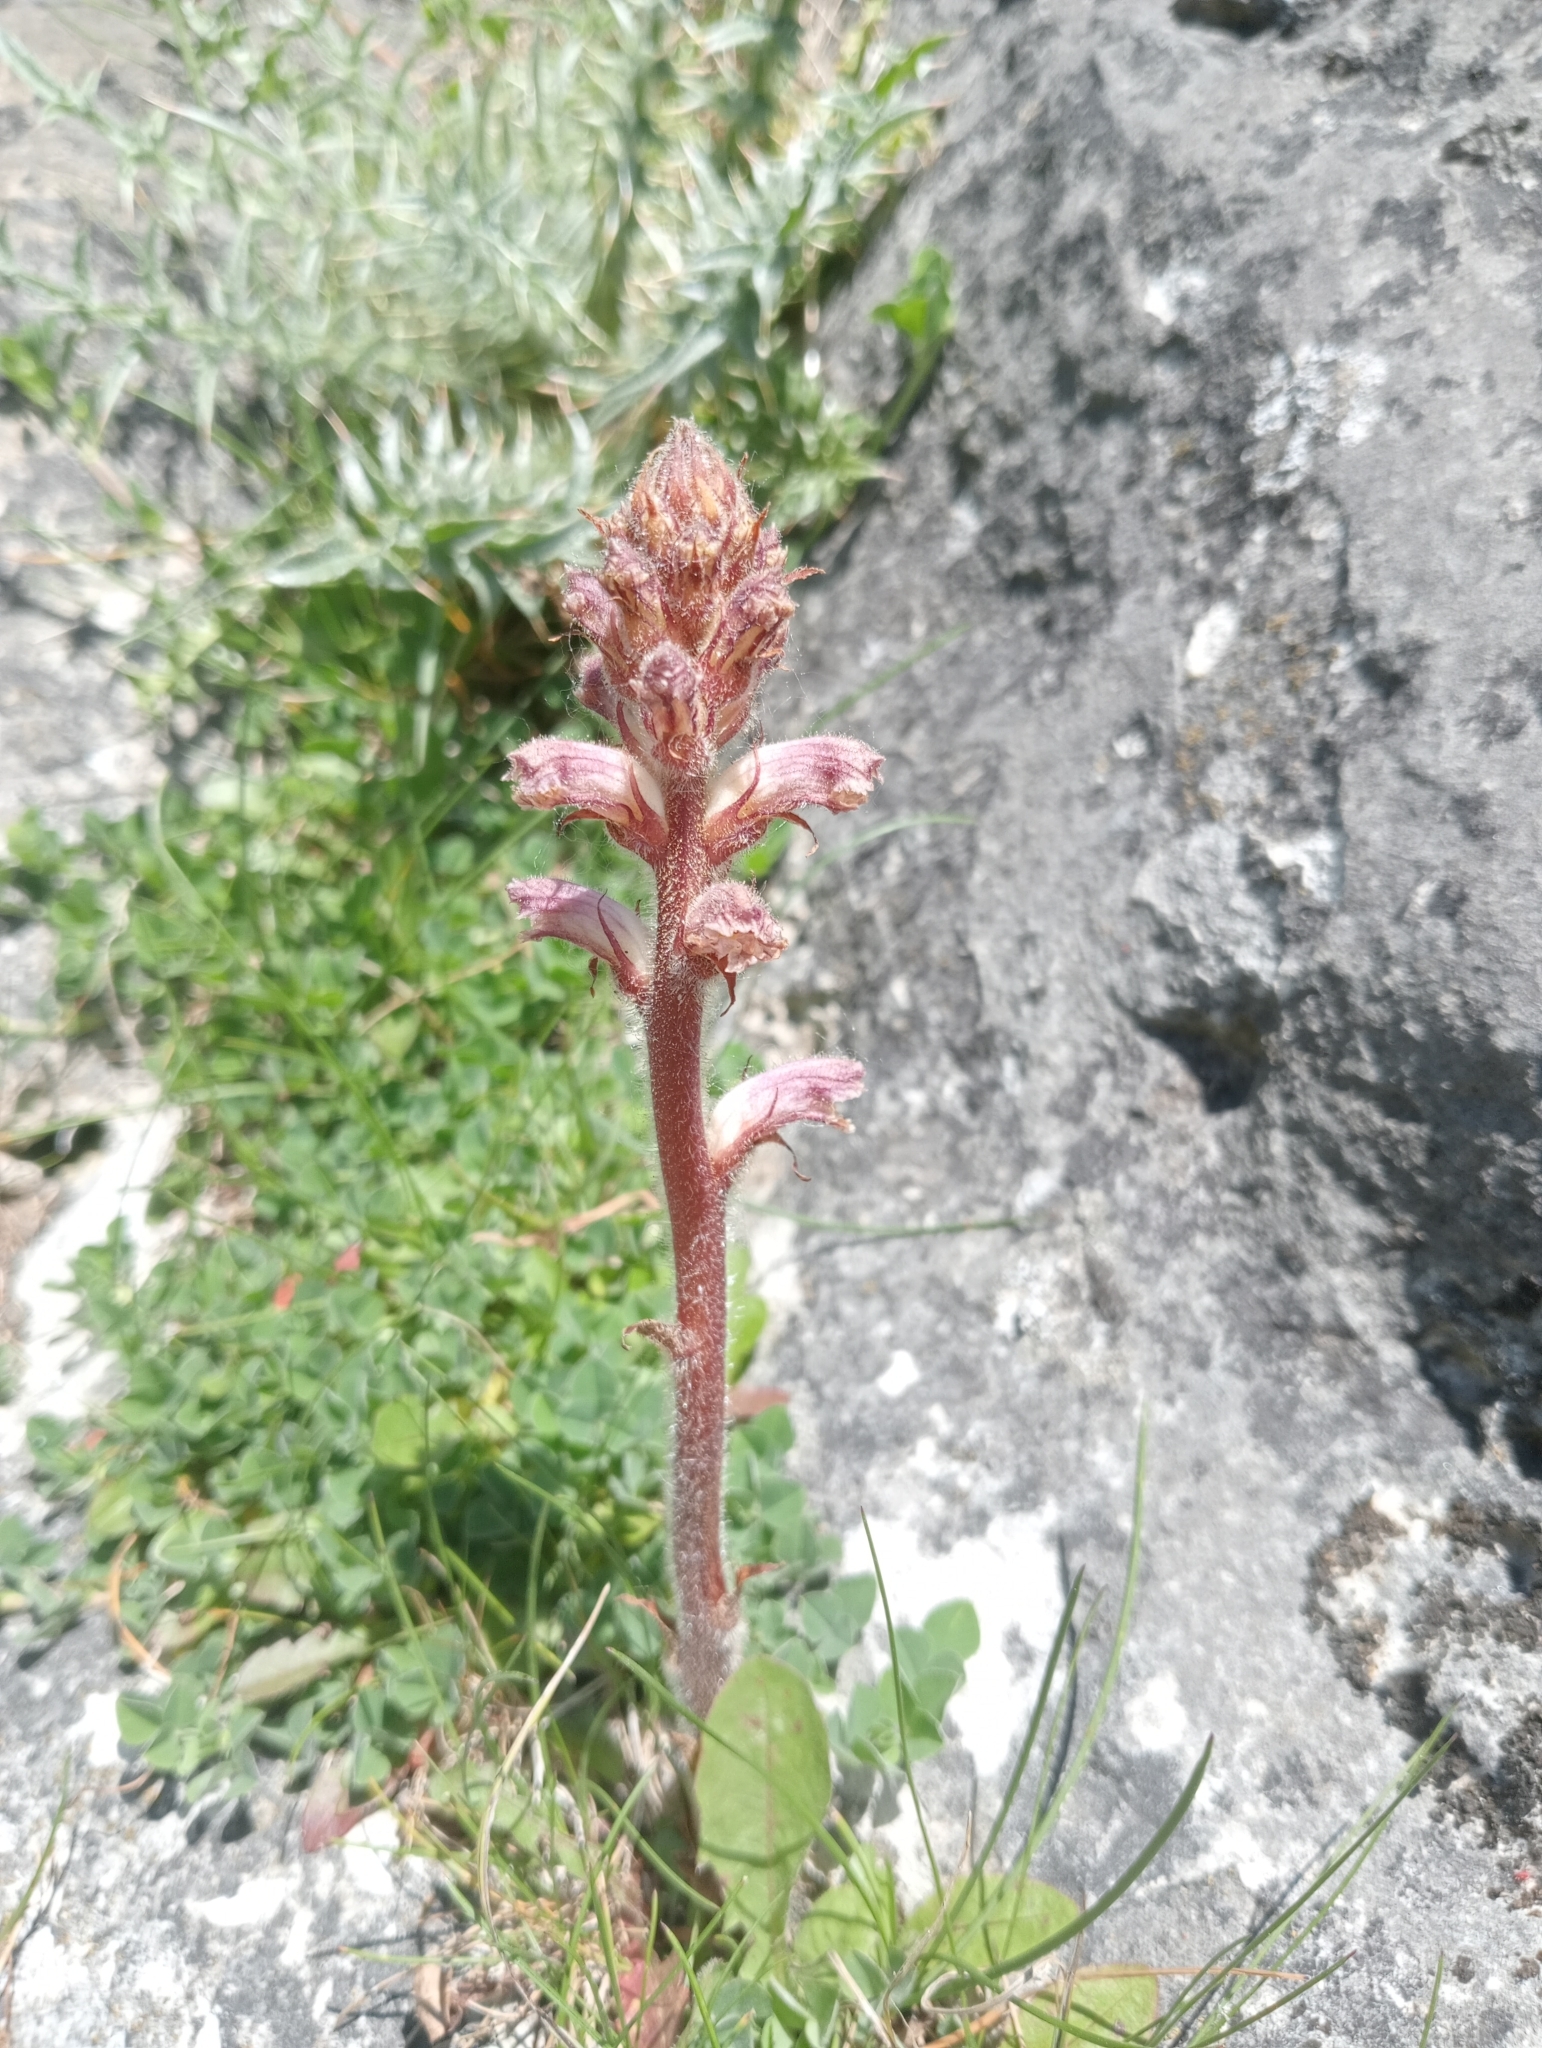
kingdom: Plantae
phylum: Tracheophyta
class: Magnoliopsida
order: Lamiales
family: Orobanchaceae
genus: Orobanche
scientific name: Orobanche minor
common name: Common broomrape
